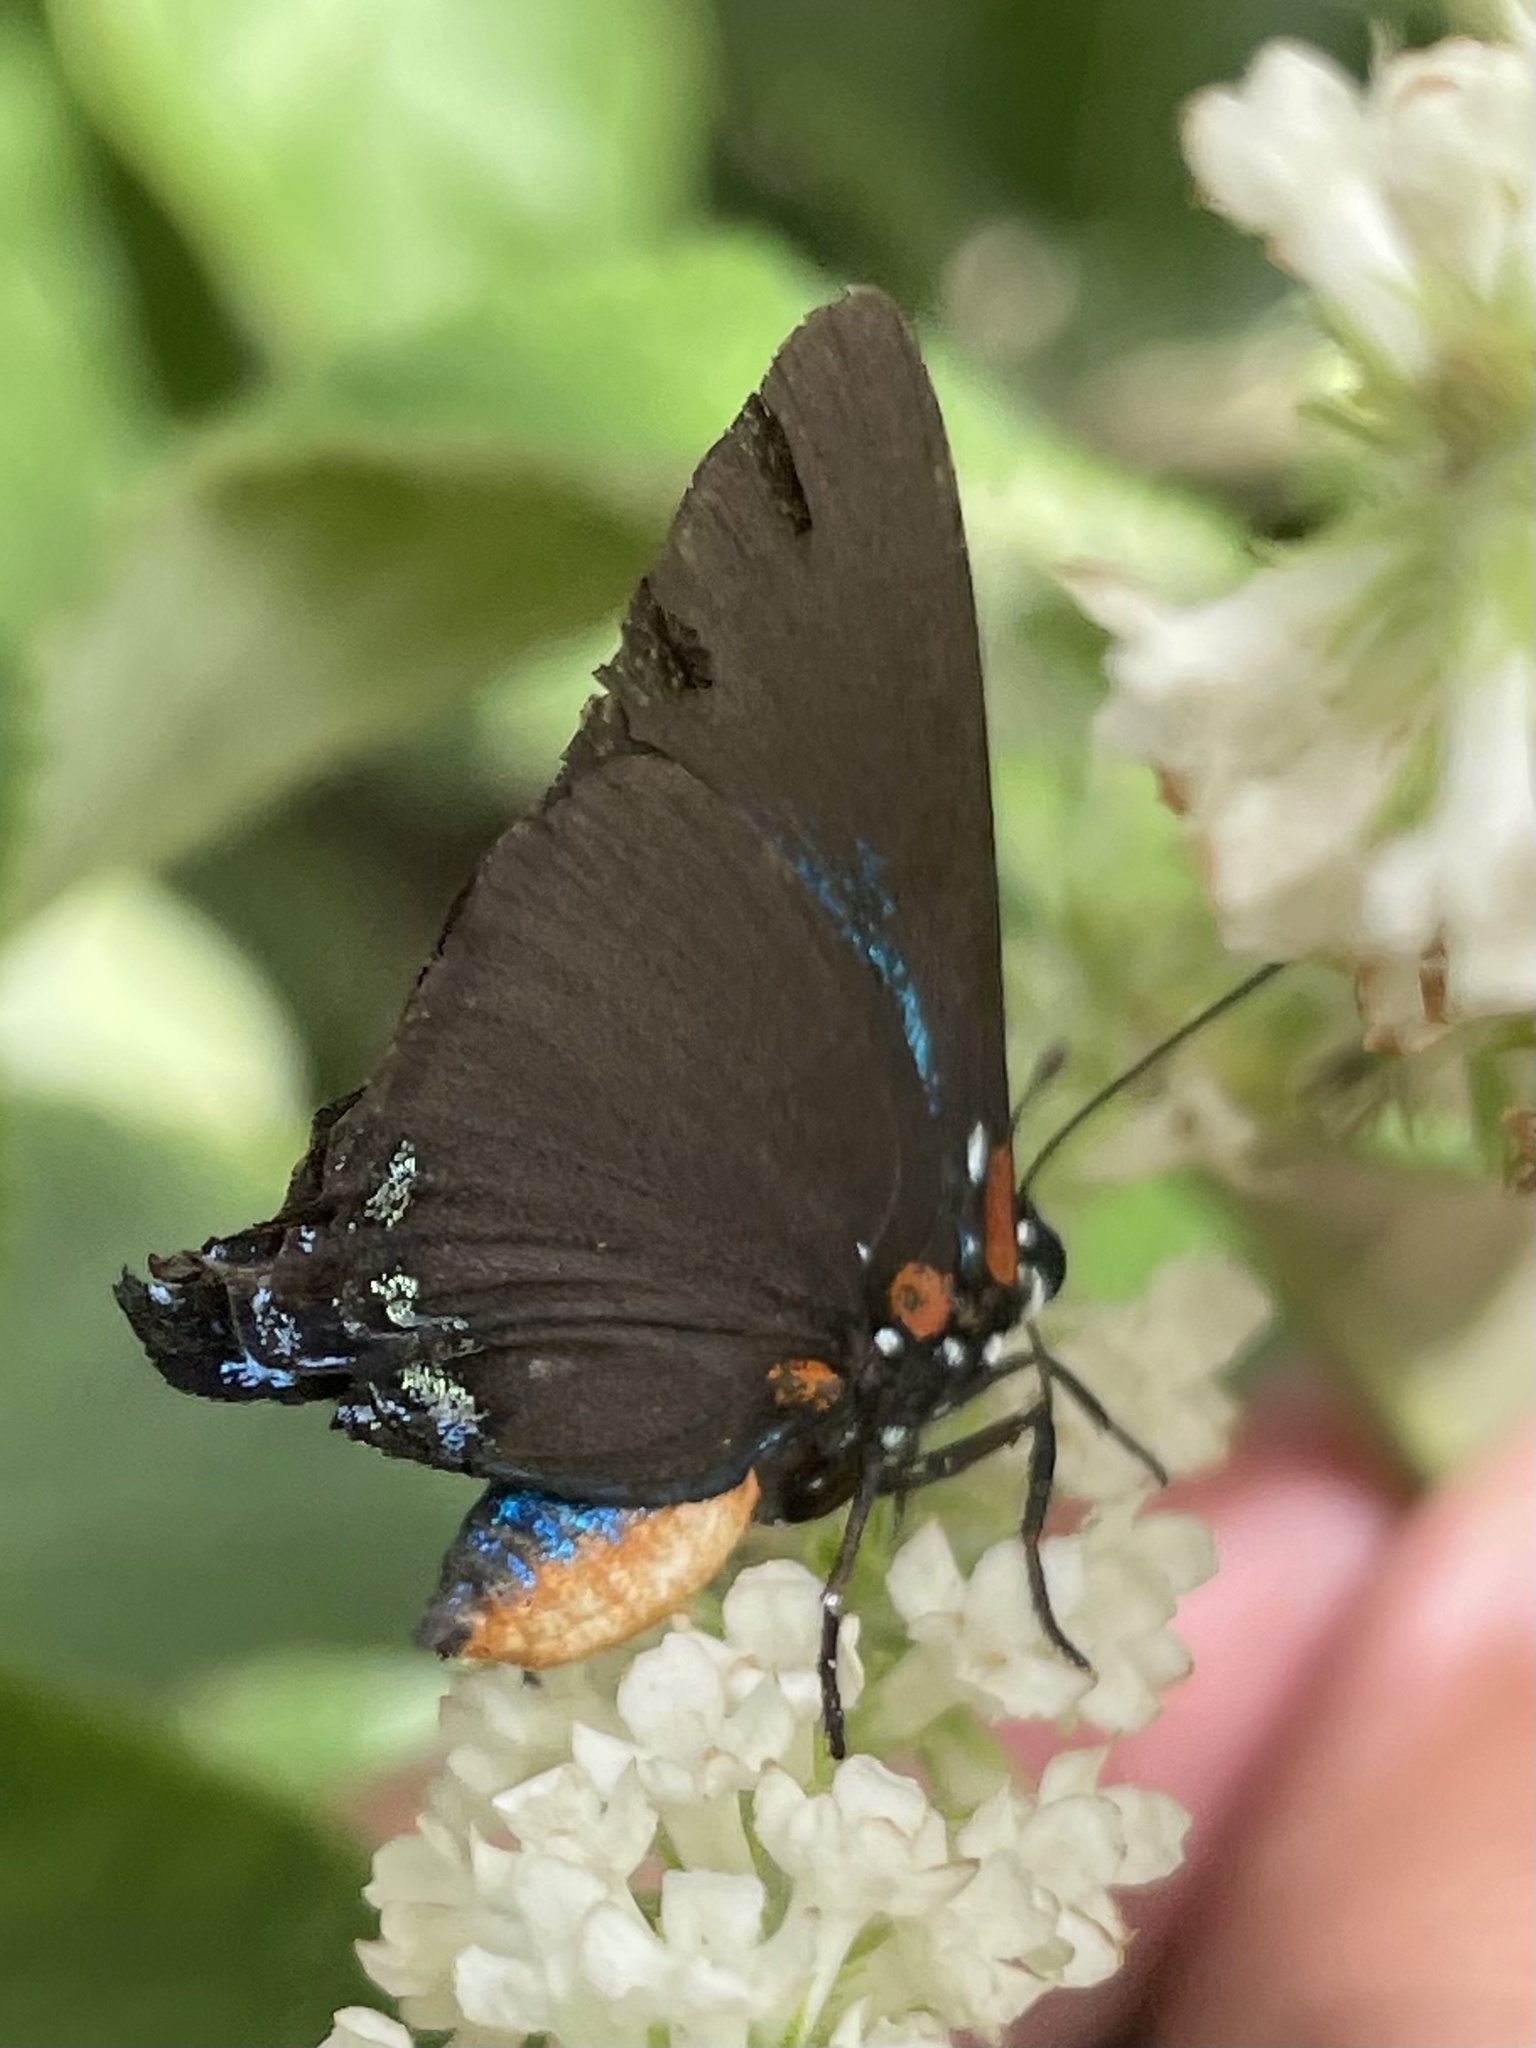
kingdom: Animalia
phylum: Arthropoda
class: Insecta
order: Lepidoptera
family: Lycaenidae
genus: Atlides
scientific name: Atlides halesus
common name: Great purple hairstreak
